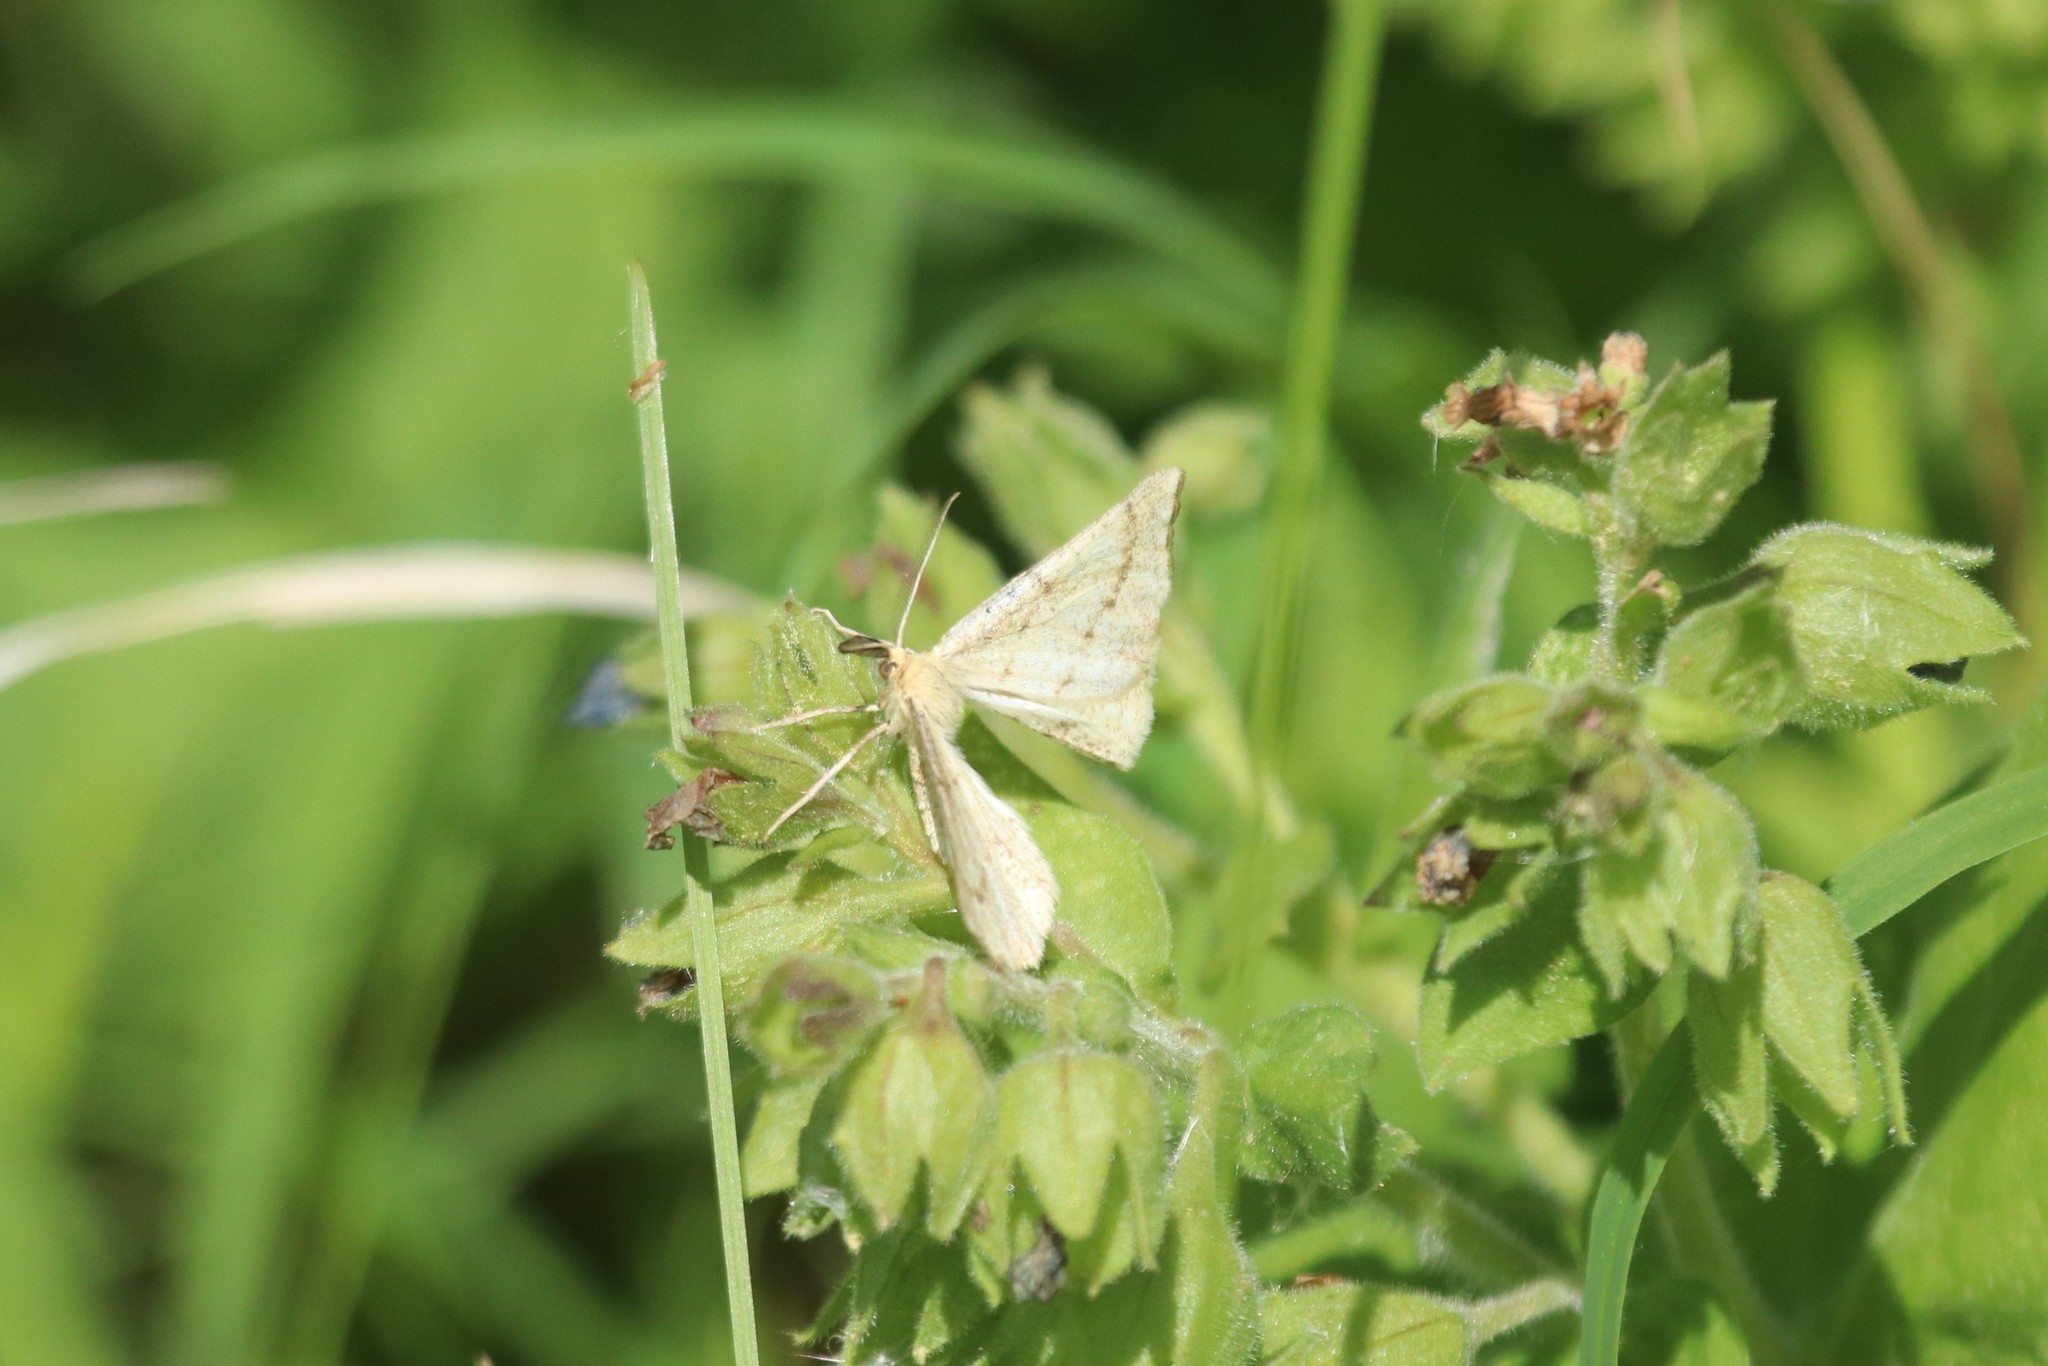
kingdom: Animalia
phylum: Arthropoda
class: Insecta
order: Lepidoptera
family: Geometridae
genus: Hypoxystis
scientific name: Hypoxystis pluviaria
